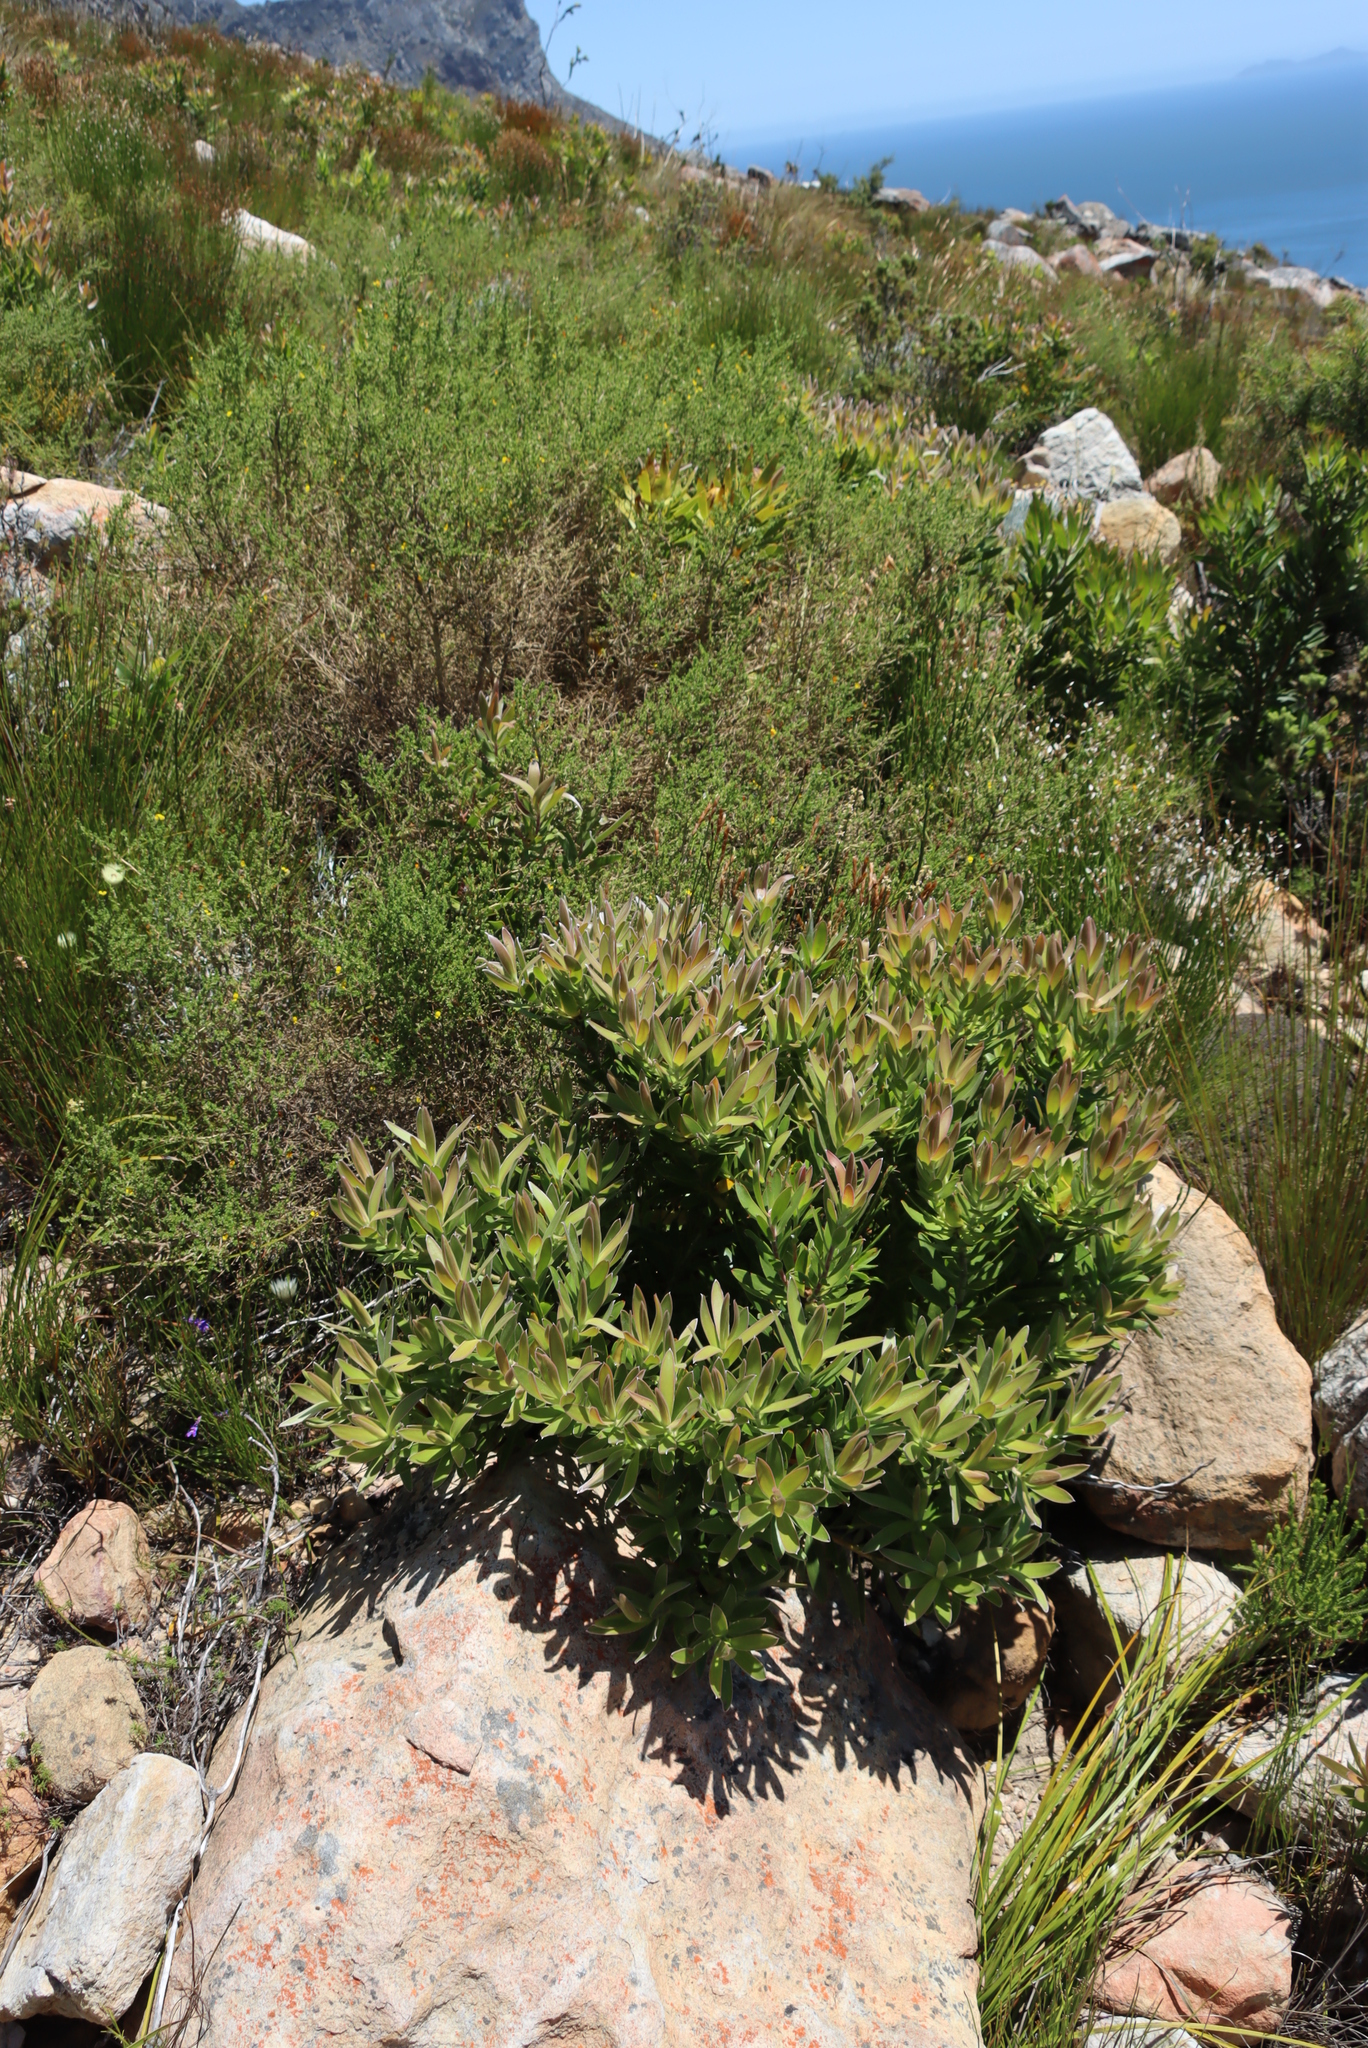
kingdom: Plantae
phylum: Tracheophyta
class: Magnoliopsida
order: Proteales
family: Proteaceae
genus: Leucadendron
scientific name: Leucadendron laureolum
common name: Golden sunshinebush
